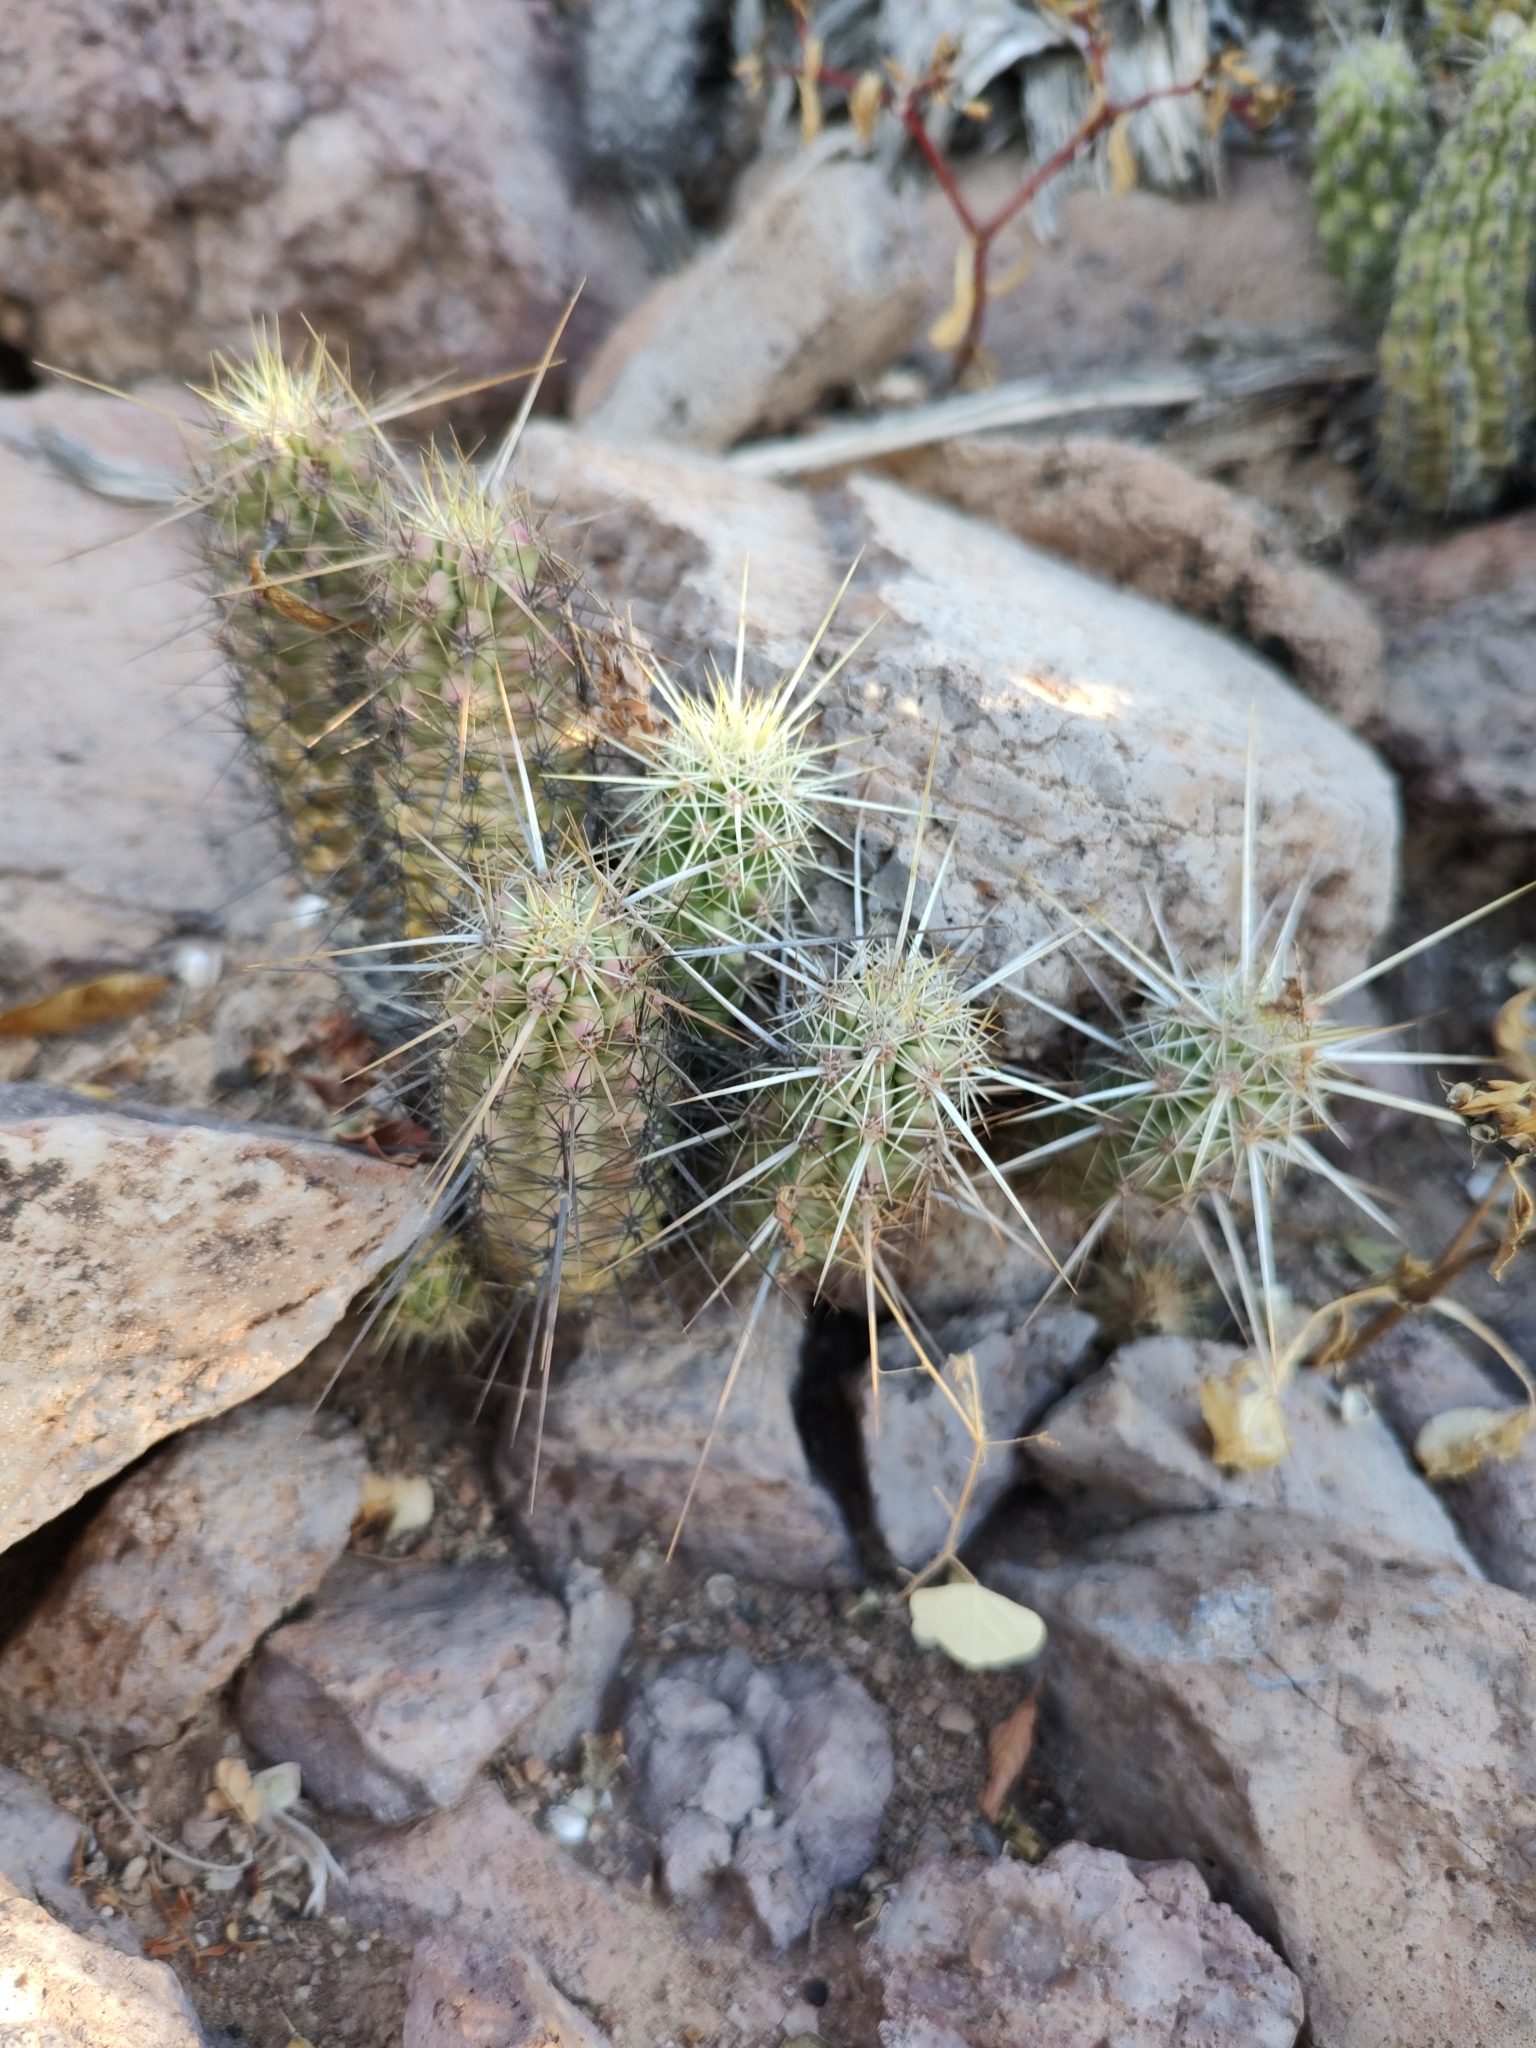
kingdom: Plantae
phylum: Tracheophyta
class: Magnoliopsida
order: Caryophyllales
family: Cactaceae
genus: Echinocereus
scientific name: Echinocereus brandegeei
